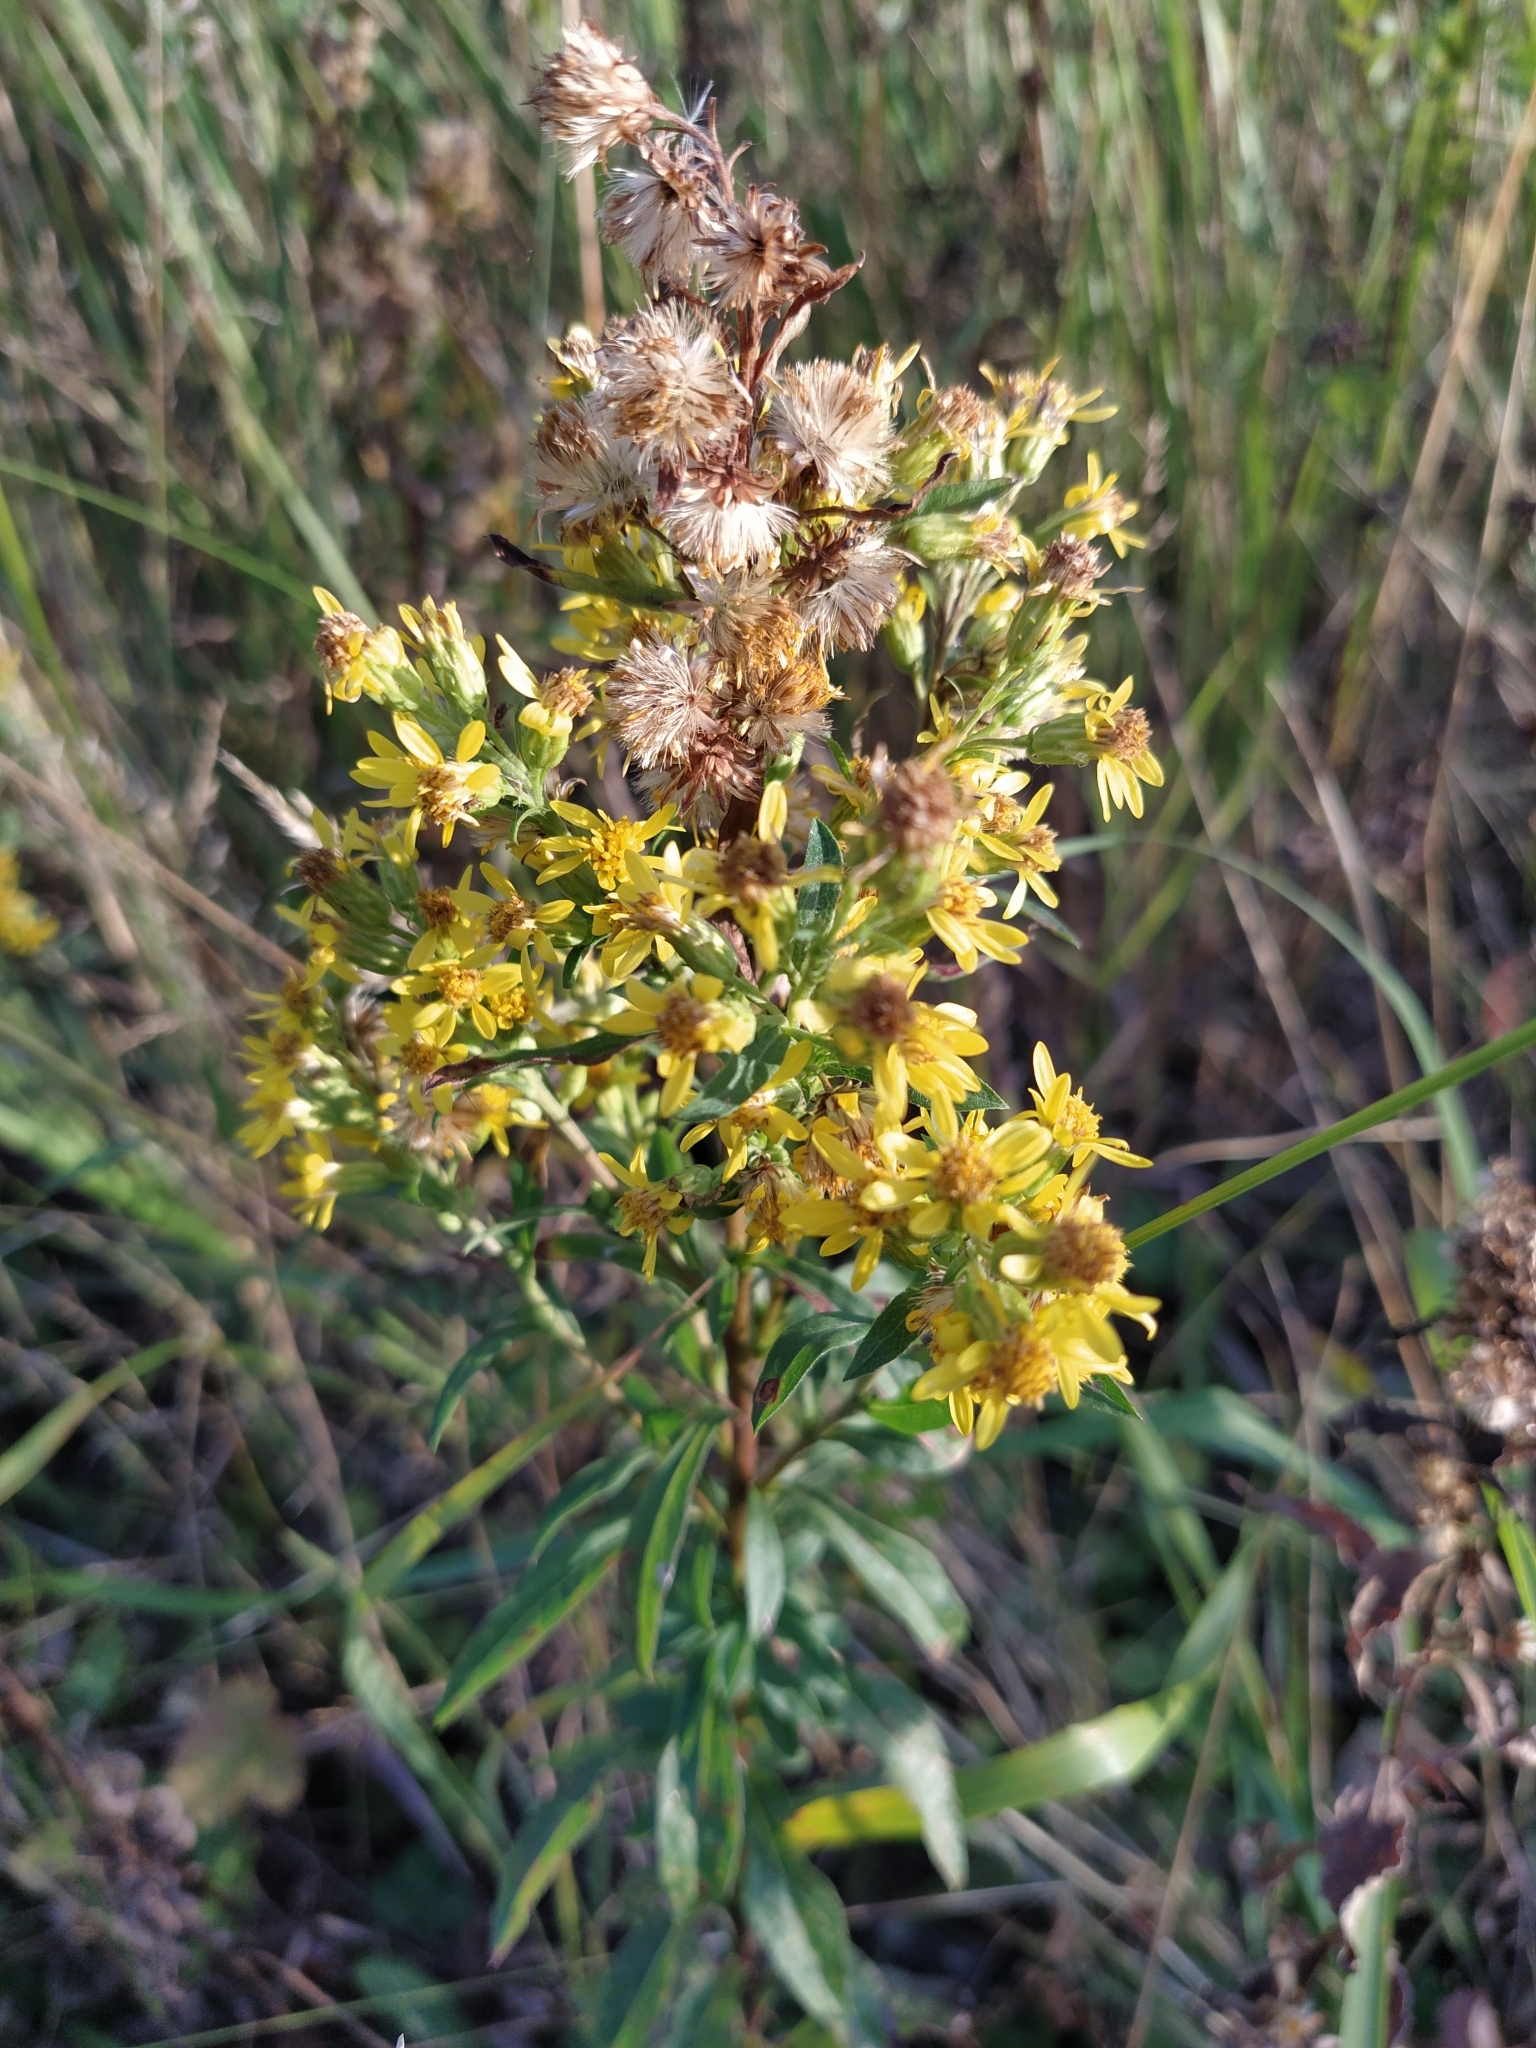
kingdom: Plantae
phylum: Tracheophyta
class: Magnoliopsida
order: Asterales
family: Asteraceae
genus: Solidago
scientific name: Solidago virgaurea
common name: Goldenrod
